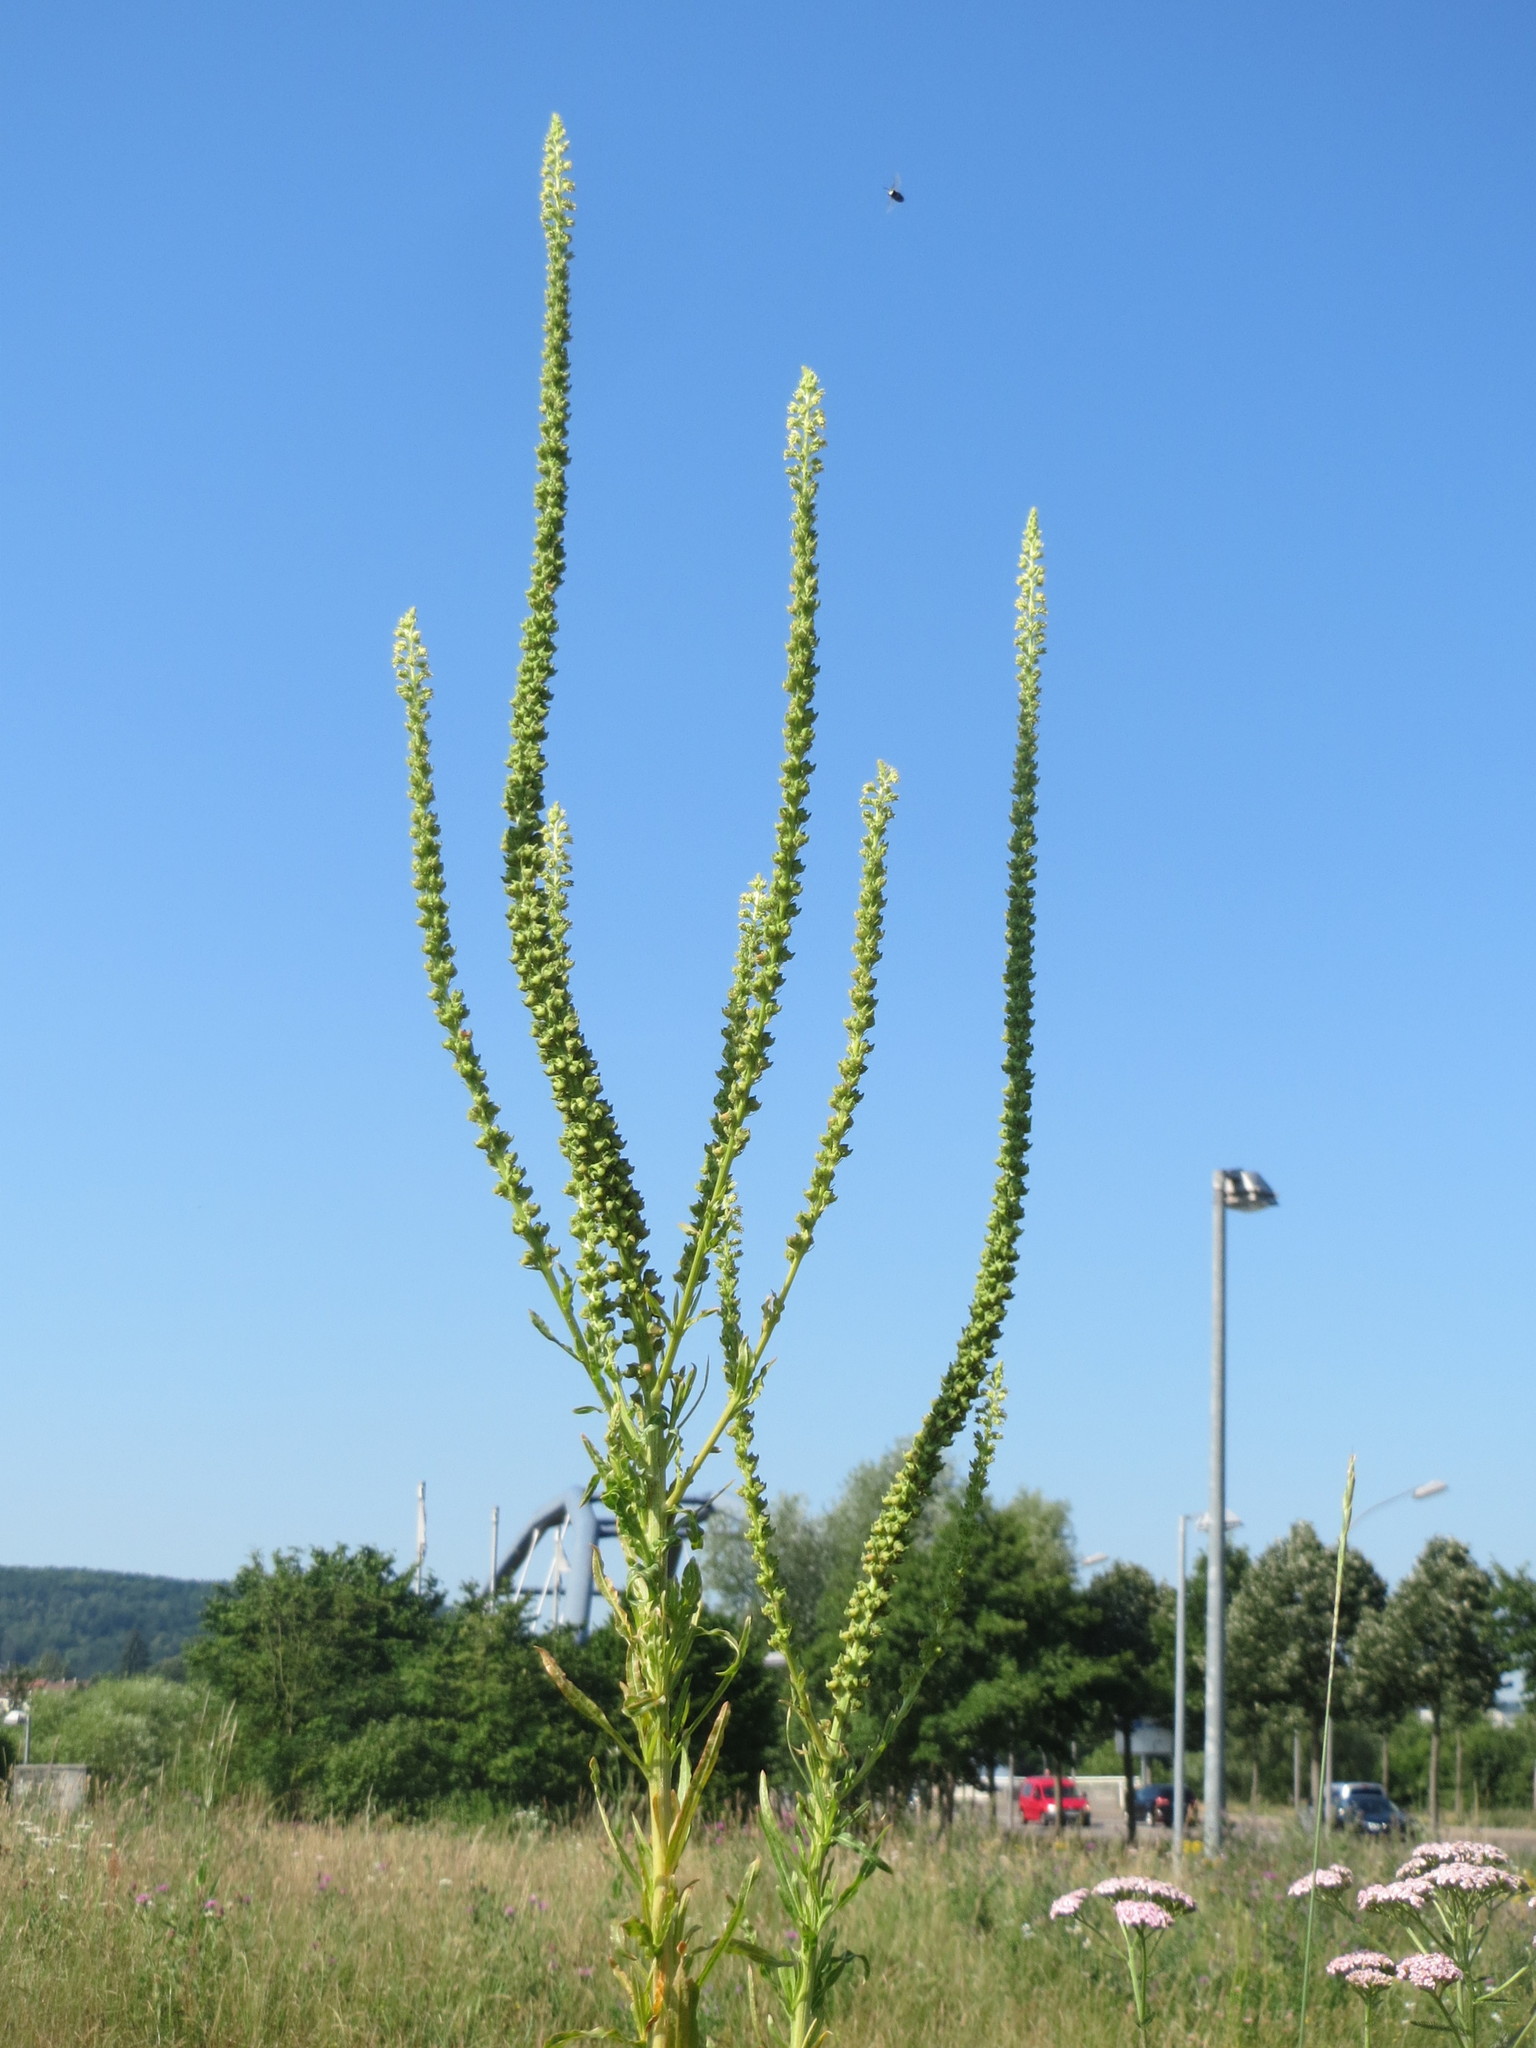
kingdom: Plantae
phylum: Tracheophyta
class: Magnoliopsida
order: Brassicales
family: Resedaceae
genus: Reseda
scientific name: Reseda luteola
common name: Weld
